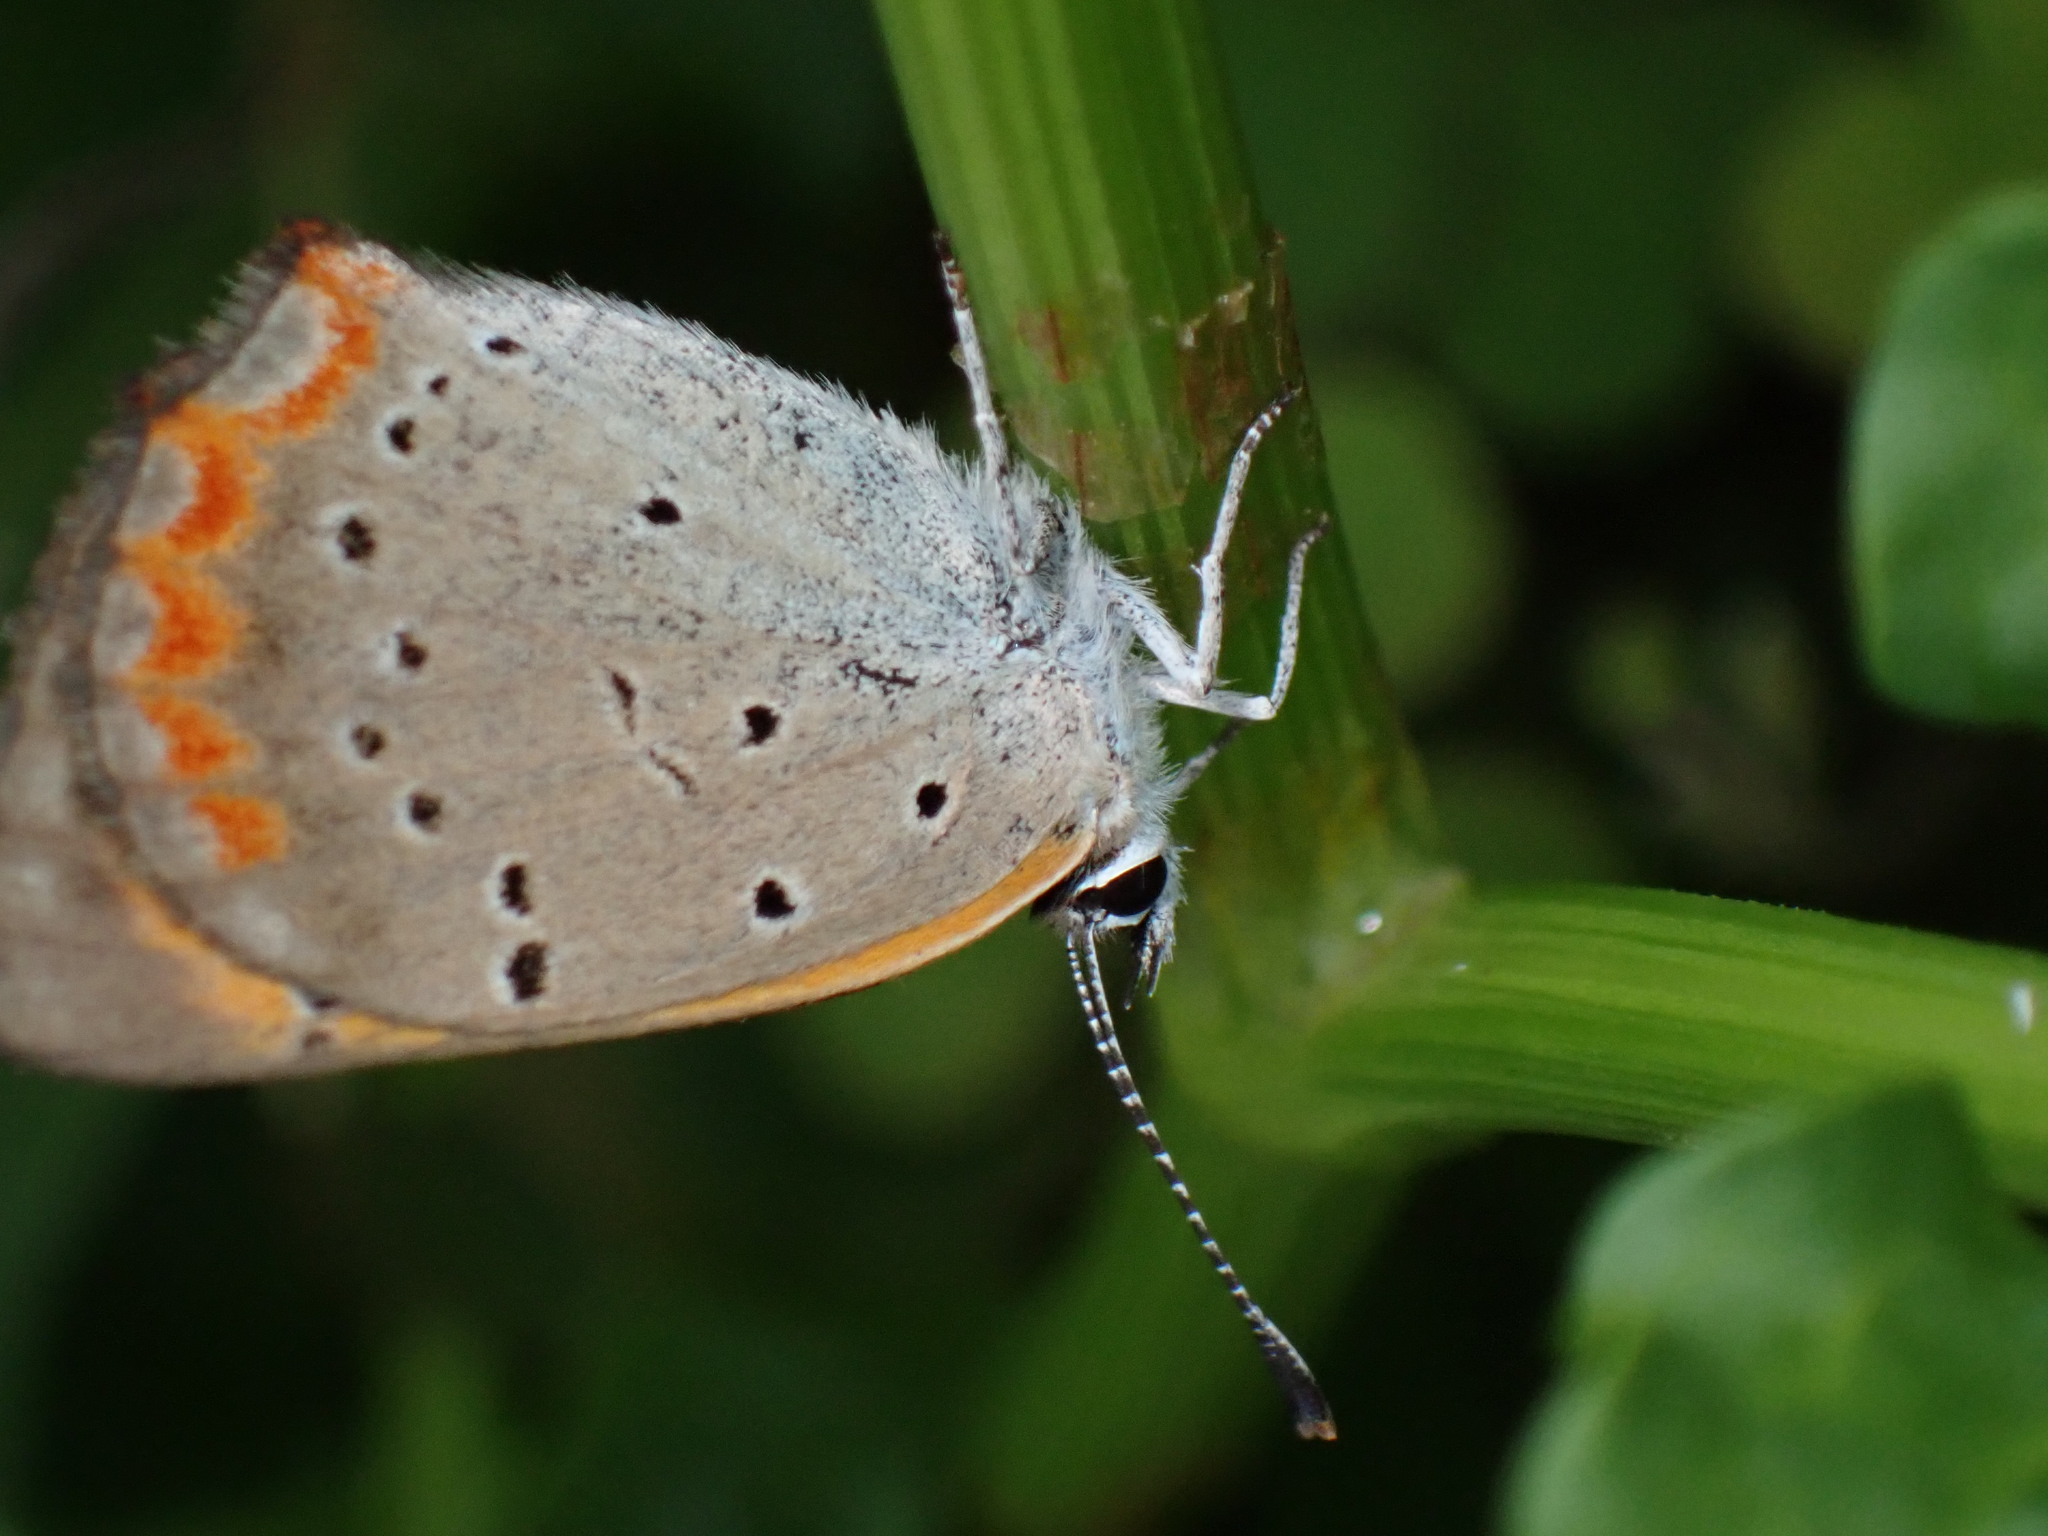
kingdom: Animalia
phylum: Arthropoda
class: Insecta
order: Lepidoptera
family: Lycaenidae
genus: Lycaena
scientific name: Lycaena phlaeas
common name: Small copper
